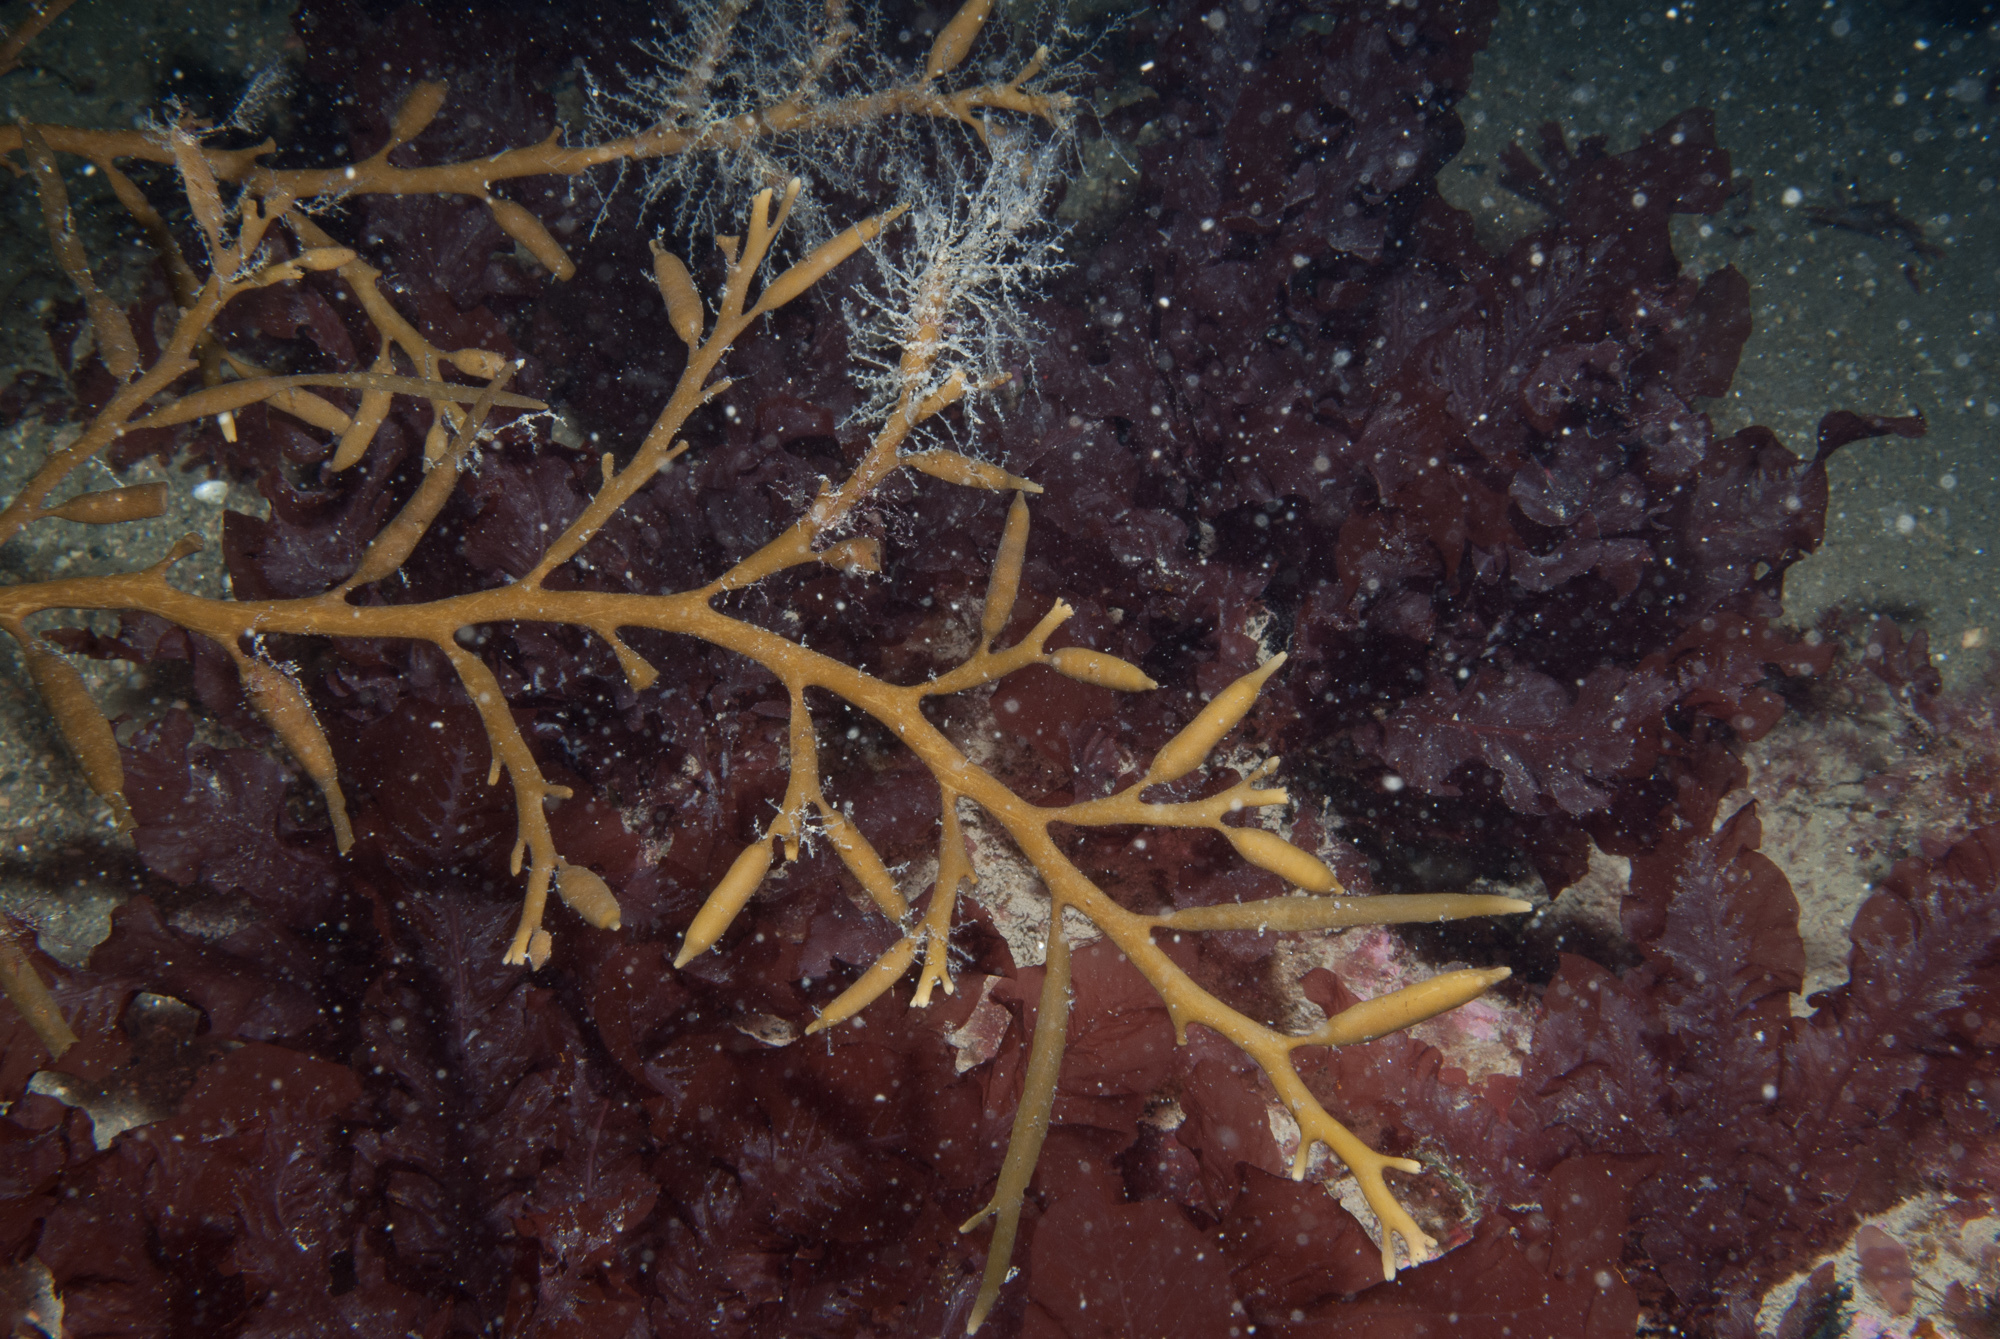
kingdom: Chromista
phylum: Ochrophyta
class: Phaeophyceae
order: Fucales
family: Sargassaceae
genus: Halidrys
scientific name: Halidrys siliquosa
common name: Sea oak
